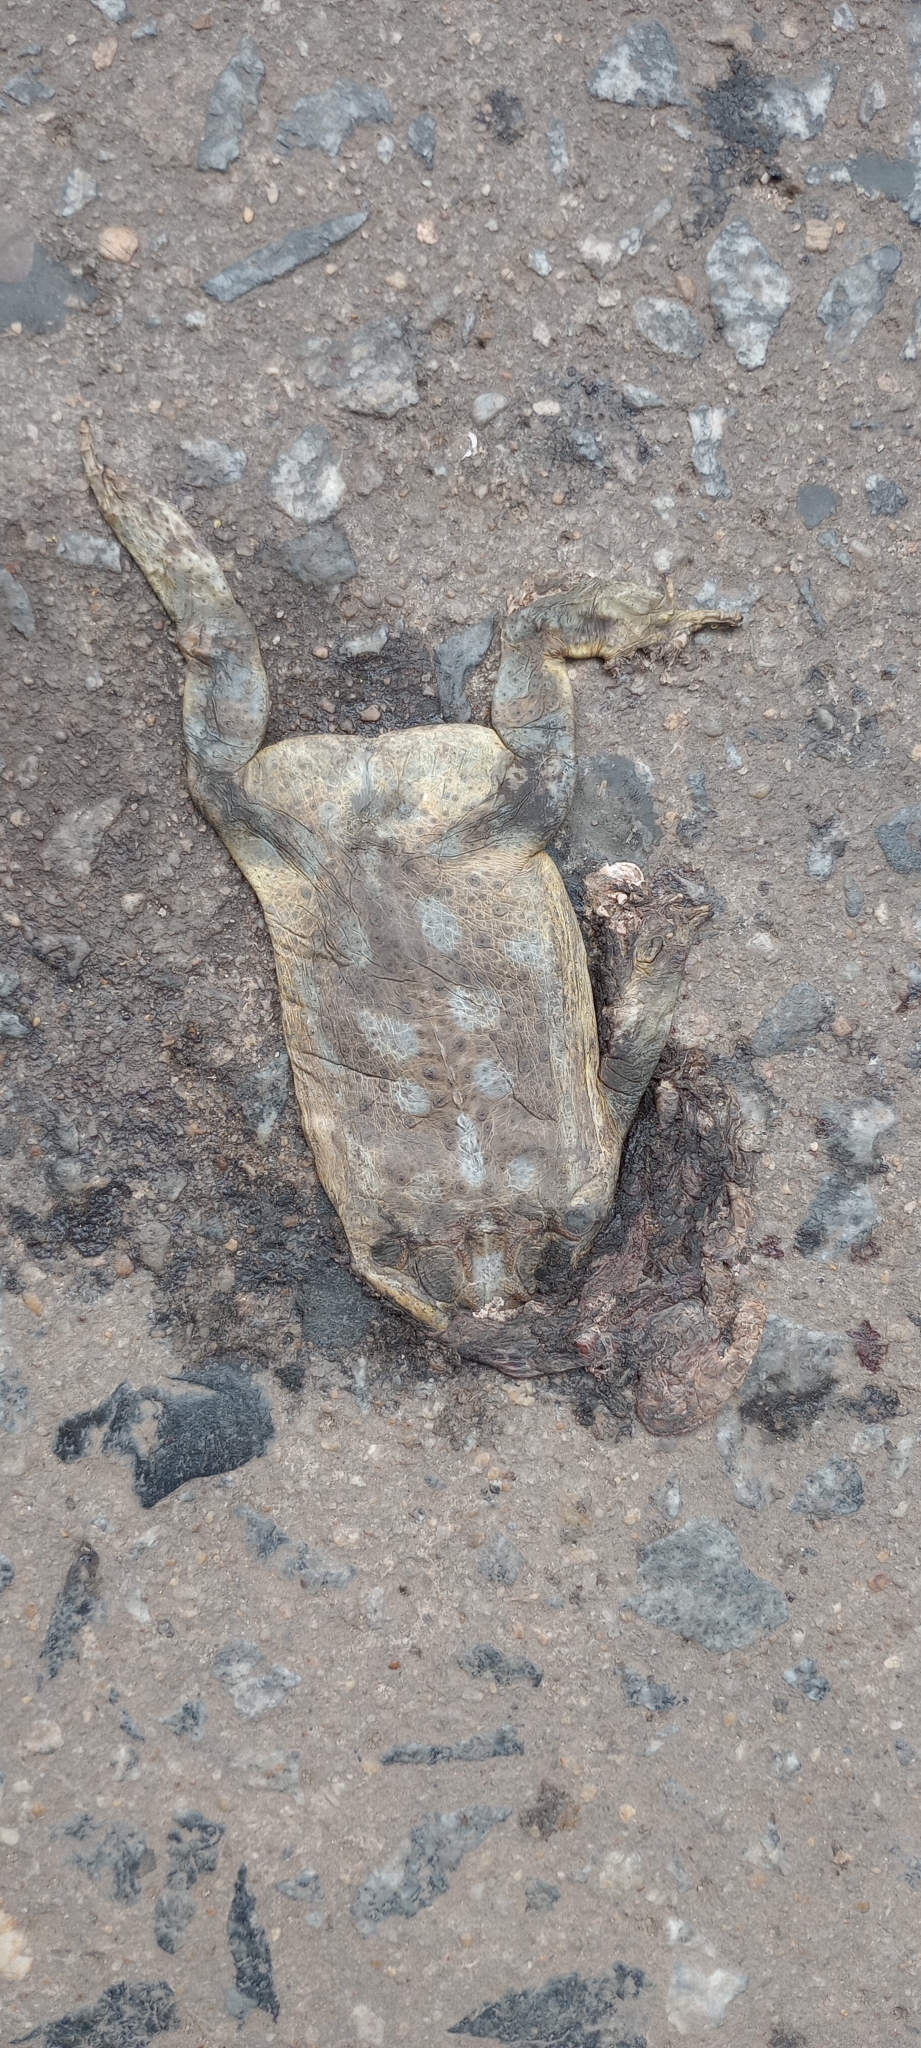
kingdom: Animalia
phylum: Chordata
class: Amphibia
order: Anura
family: Bufonidae
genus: Rhinella
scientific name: Rhinella arenarum
